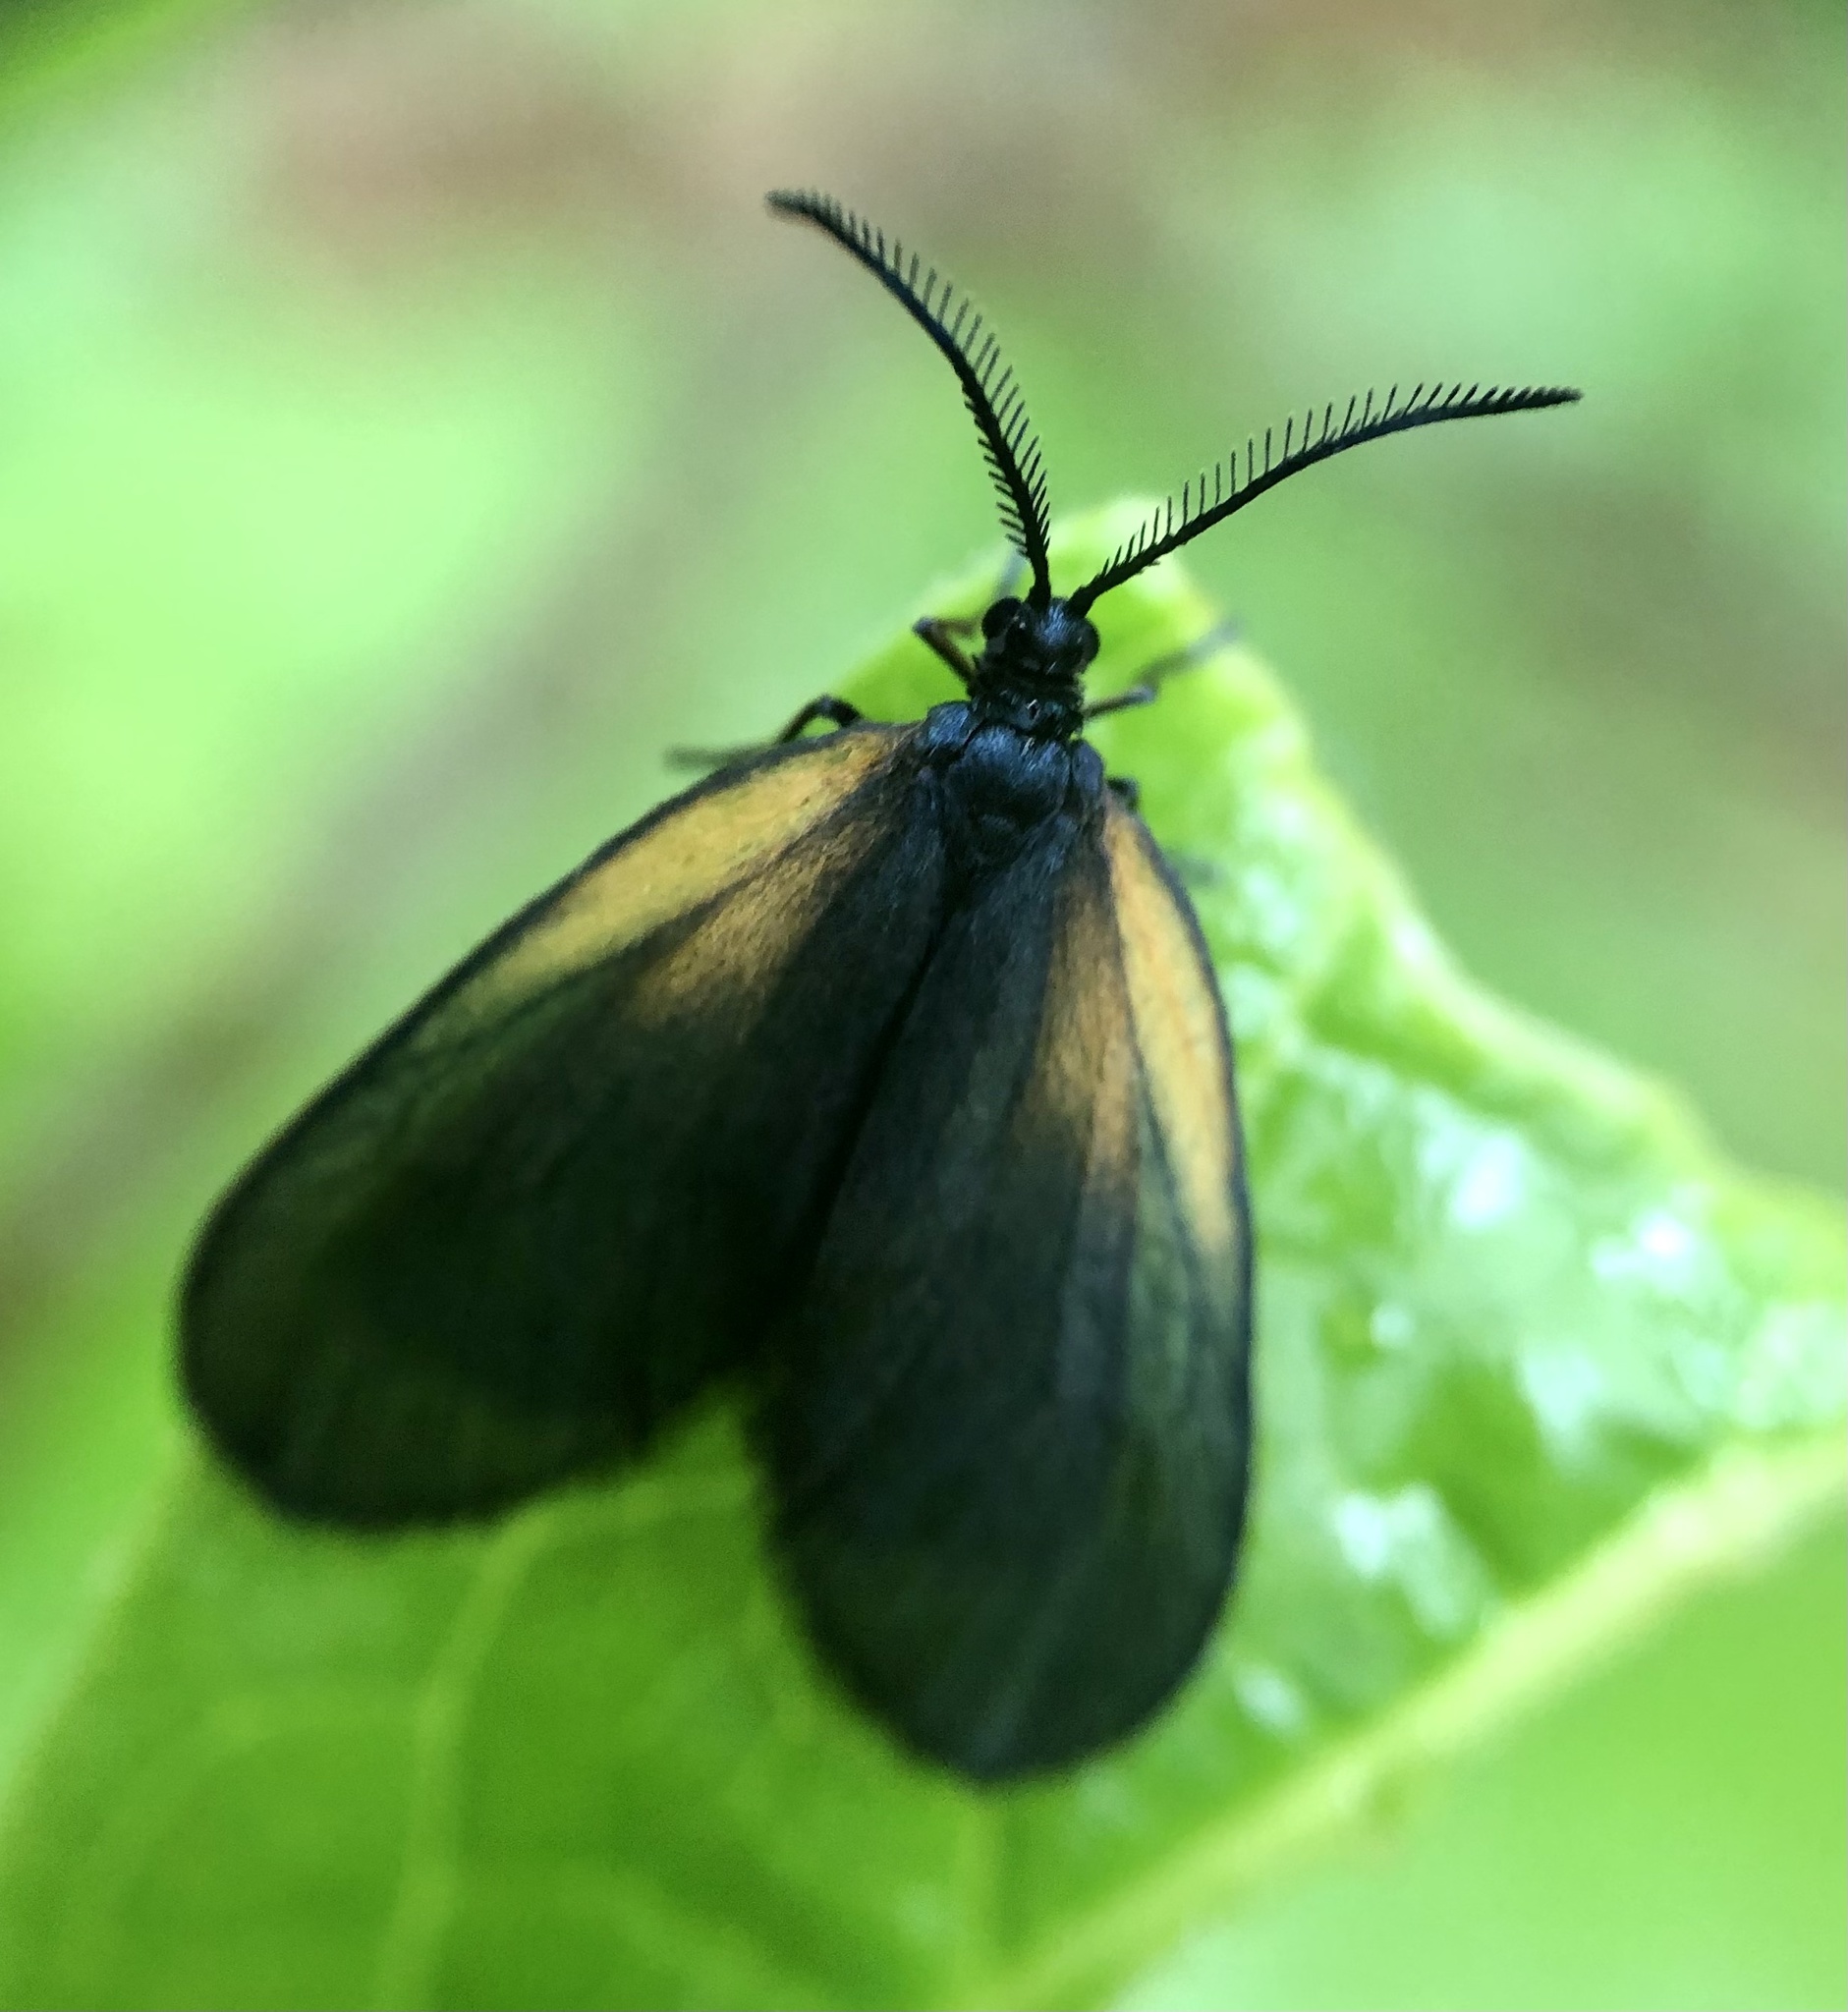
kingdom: Animalia
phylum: Arthropoda
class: Insecta
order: Lepidoptera
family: Zygaenidae
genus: Malthaca
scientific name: Malthaca dimidiata
